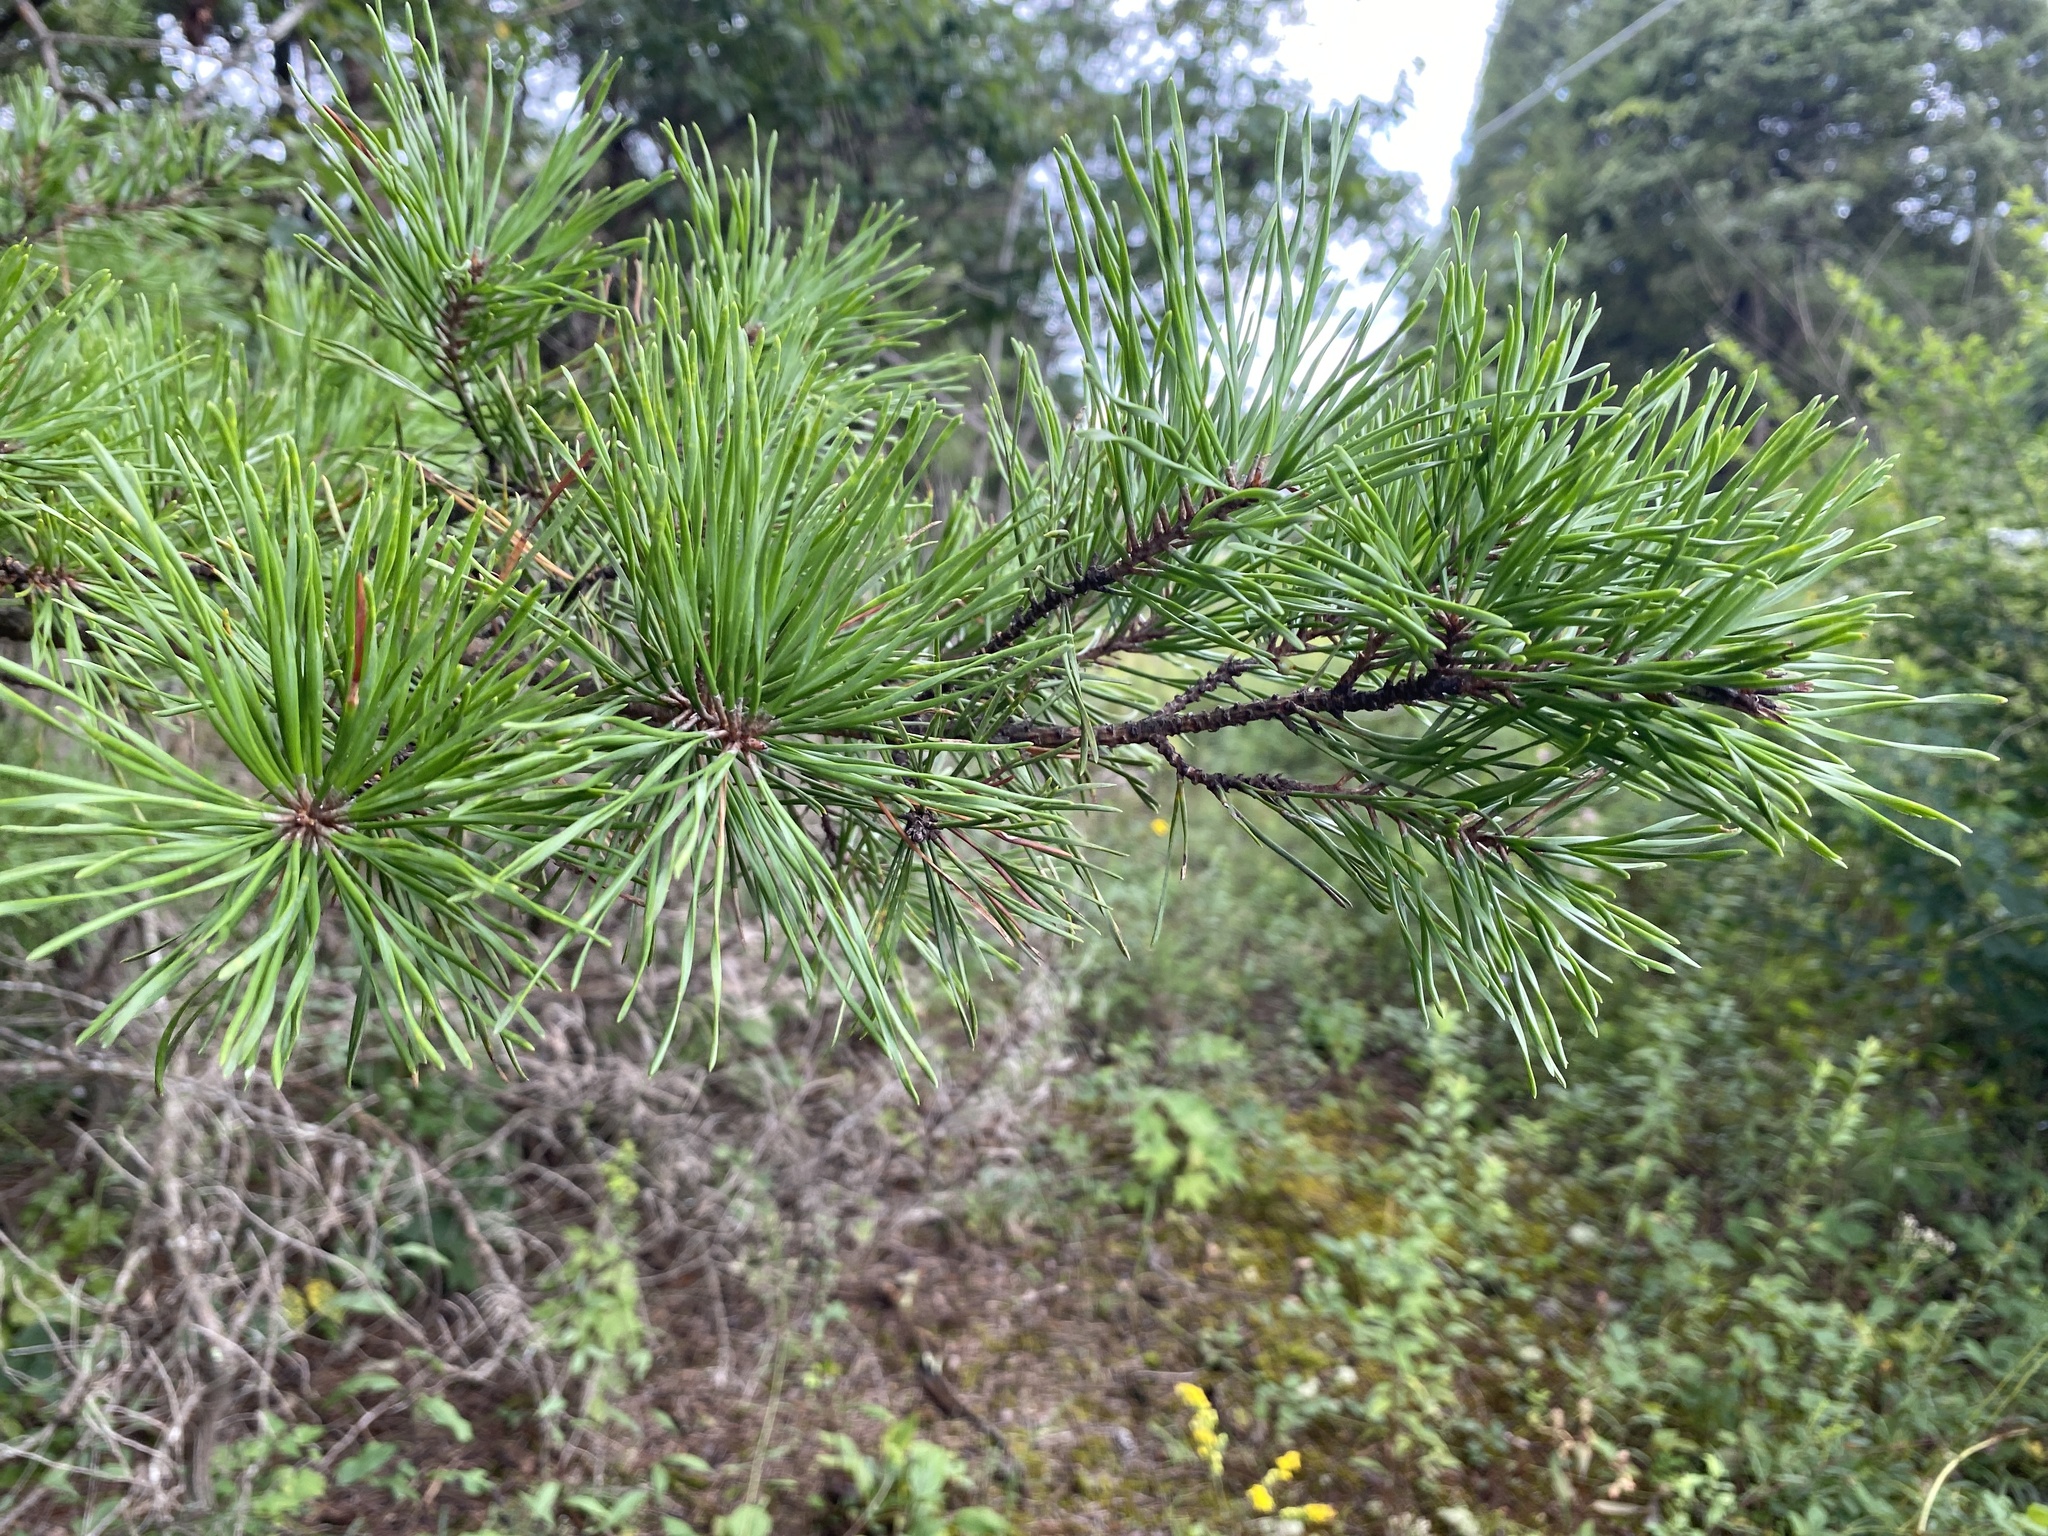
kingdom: Plantae
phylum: Tracheophyta
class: Pinopsida
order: Pinales
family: Pinaceae
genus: Pinus
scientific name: Pinus virginiana
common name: Scrub pine
